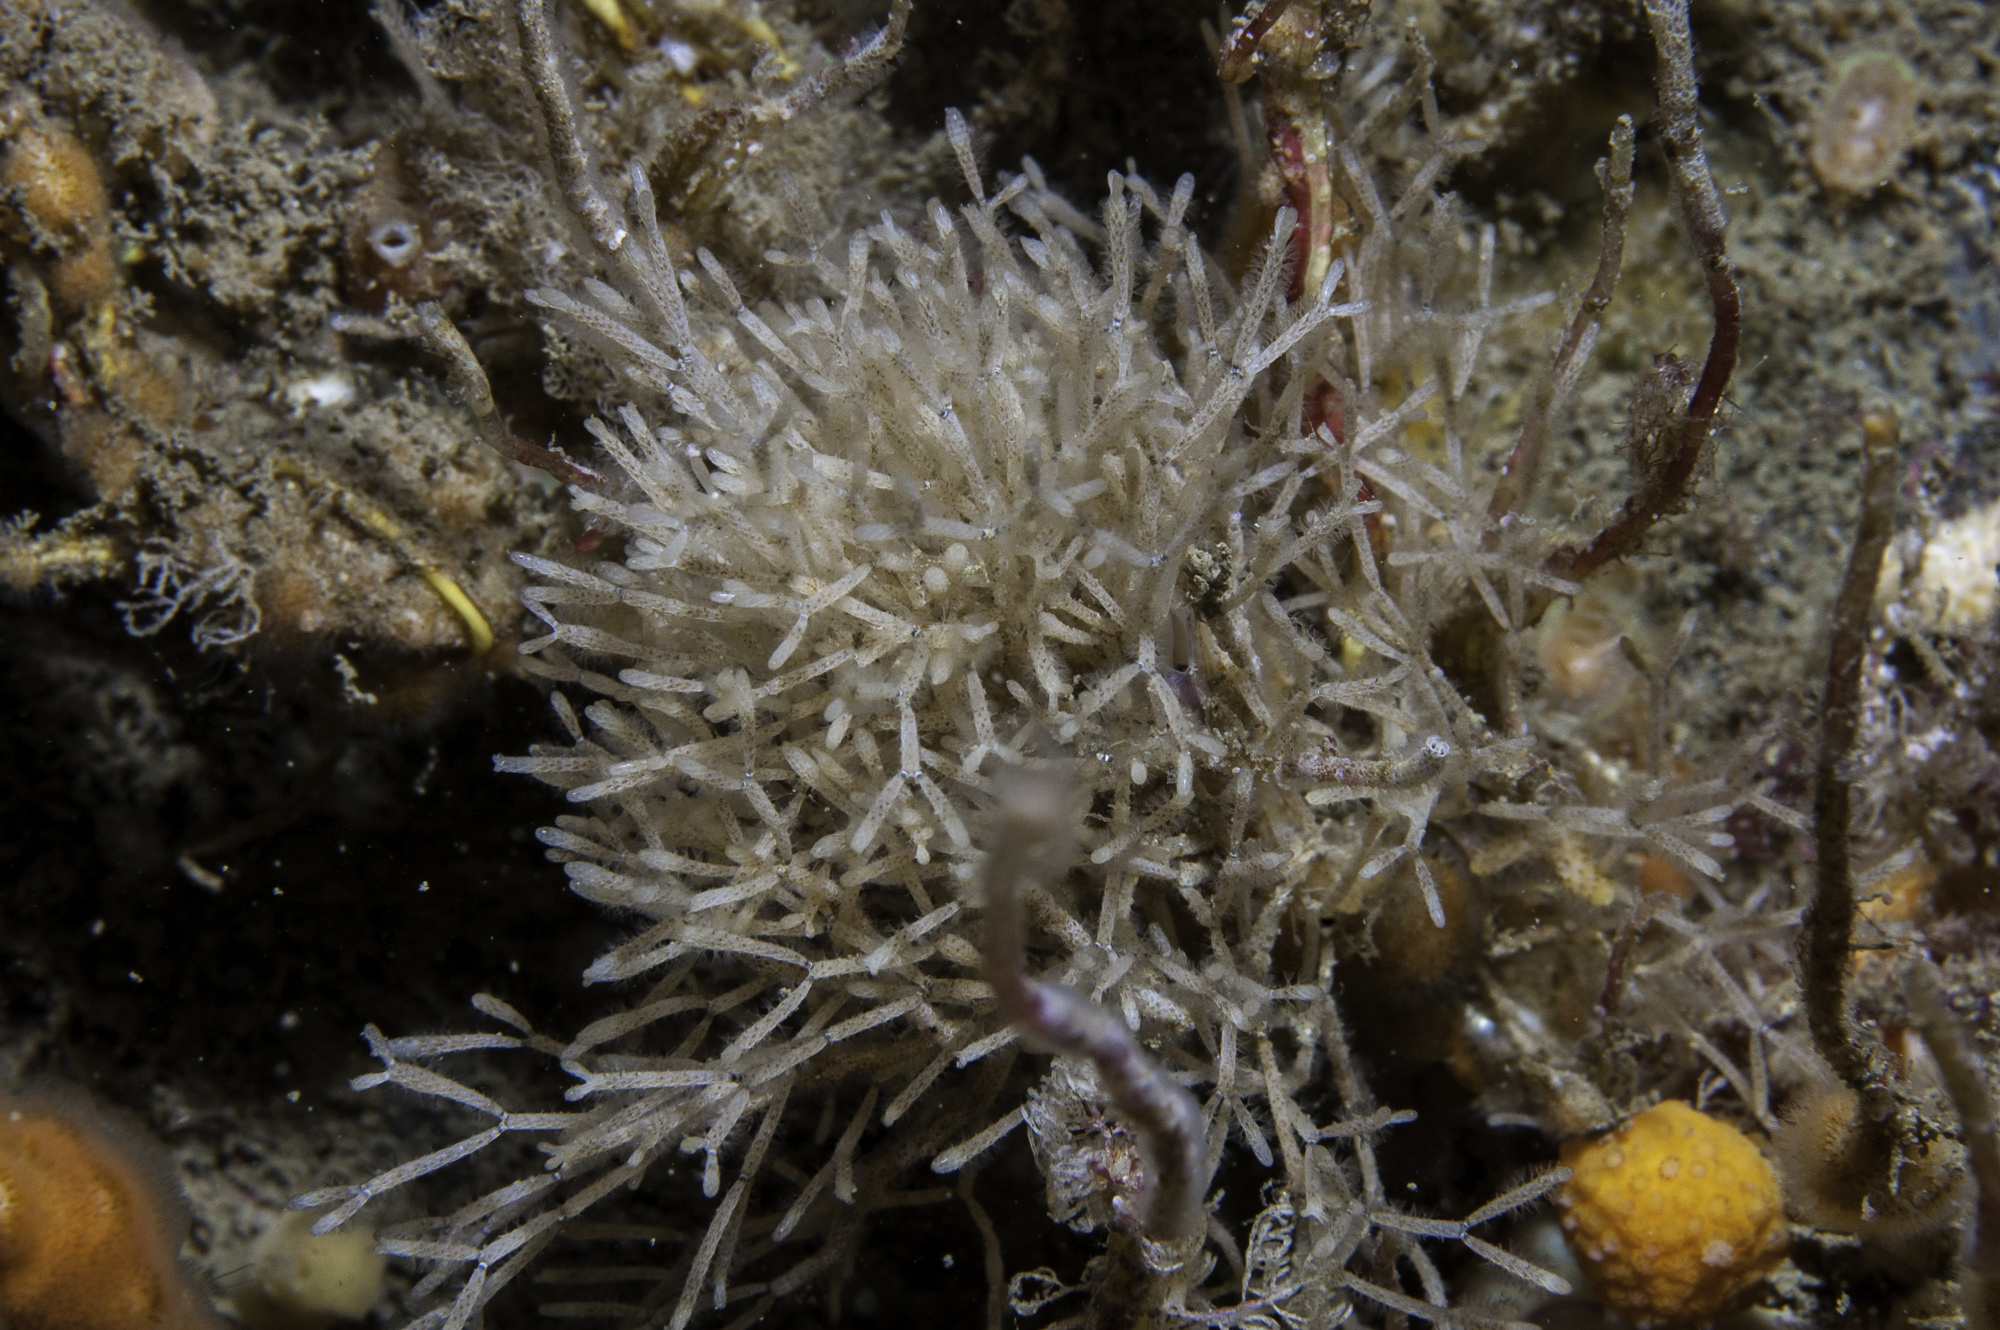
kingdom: Animalia
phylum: Bryozoa
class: Gymnolaemata
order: Cheilostomatida
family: Cellariidae
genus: Cellaria
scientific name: Cellaria fistulosa
